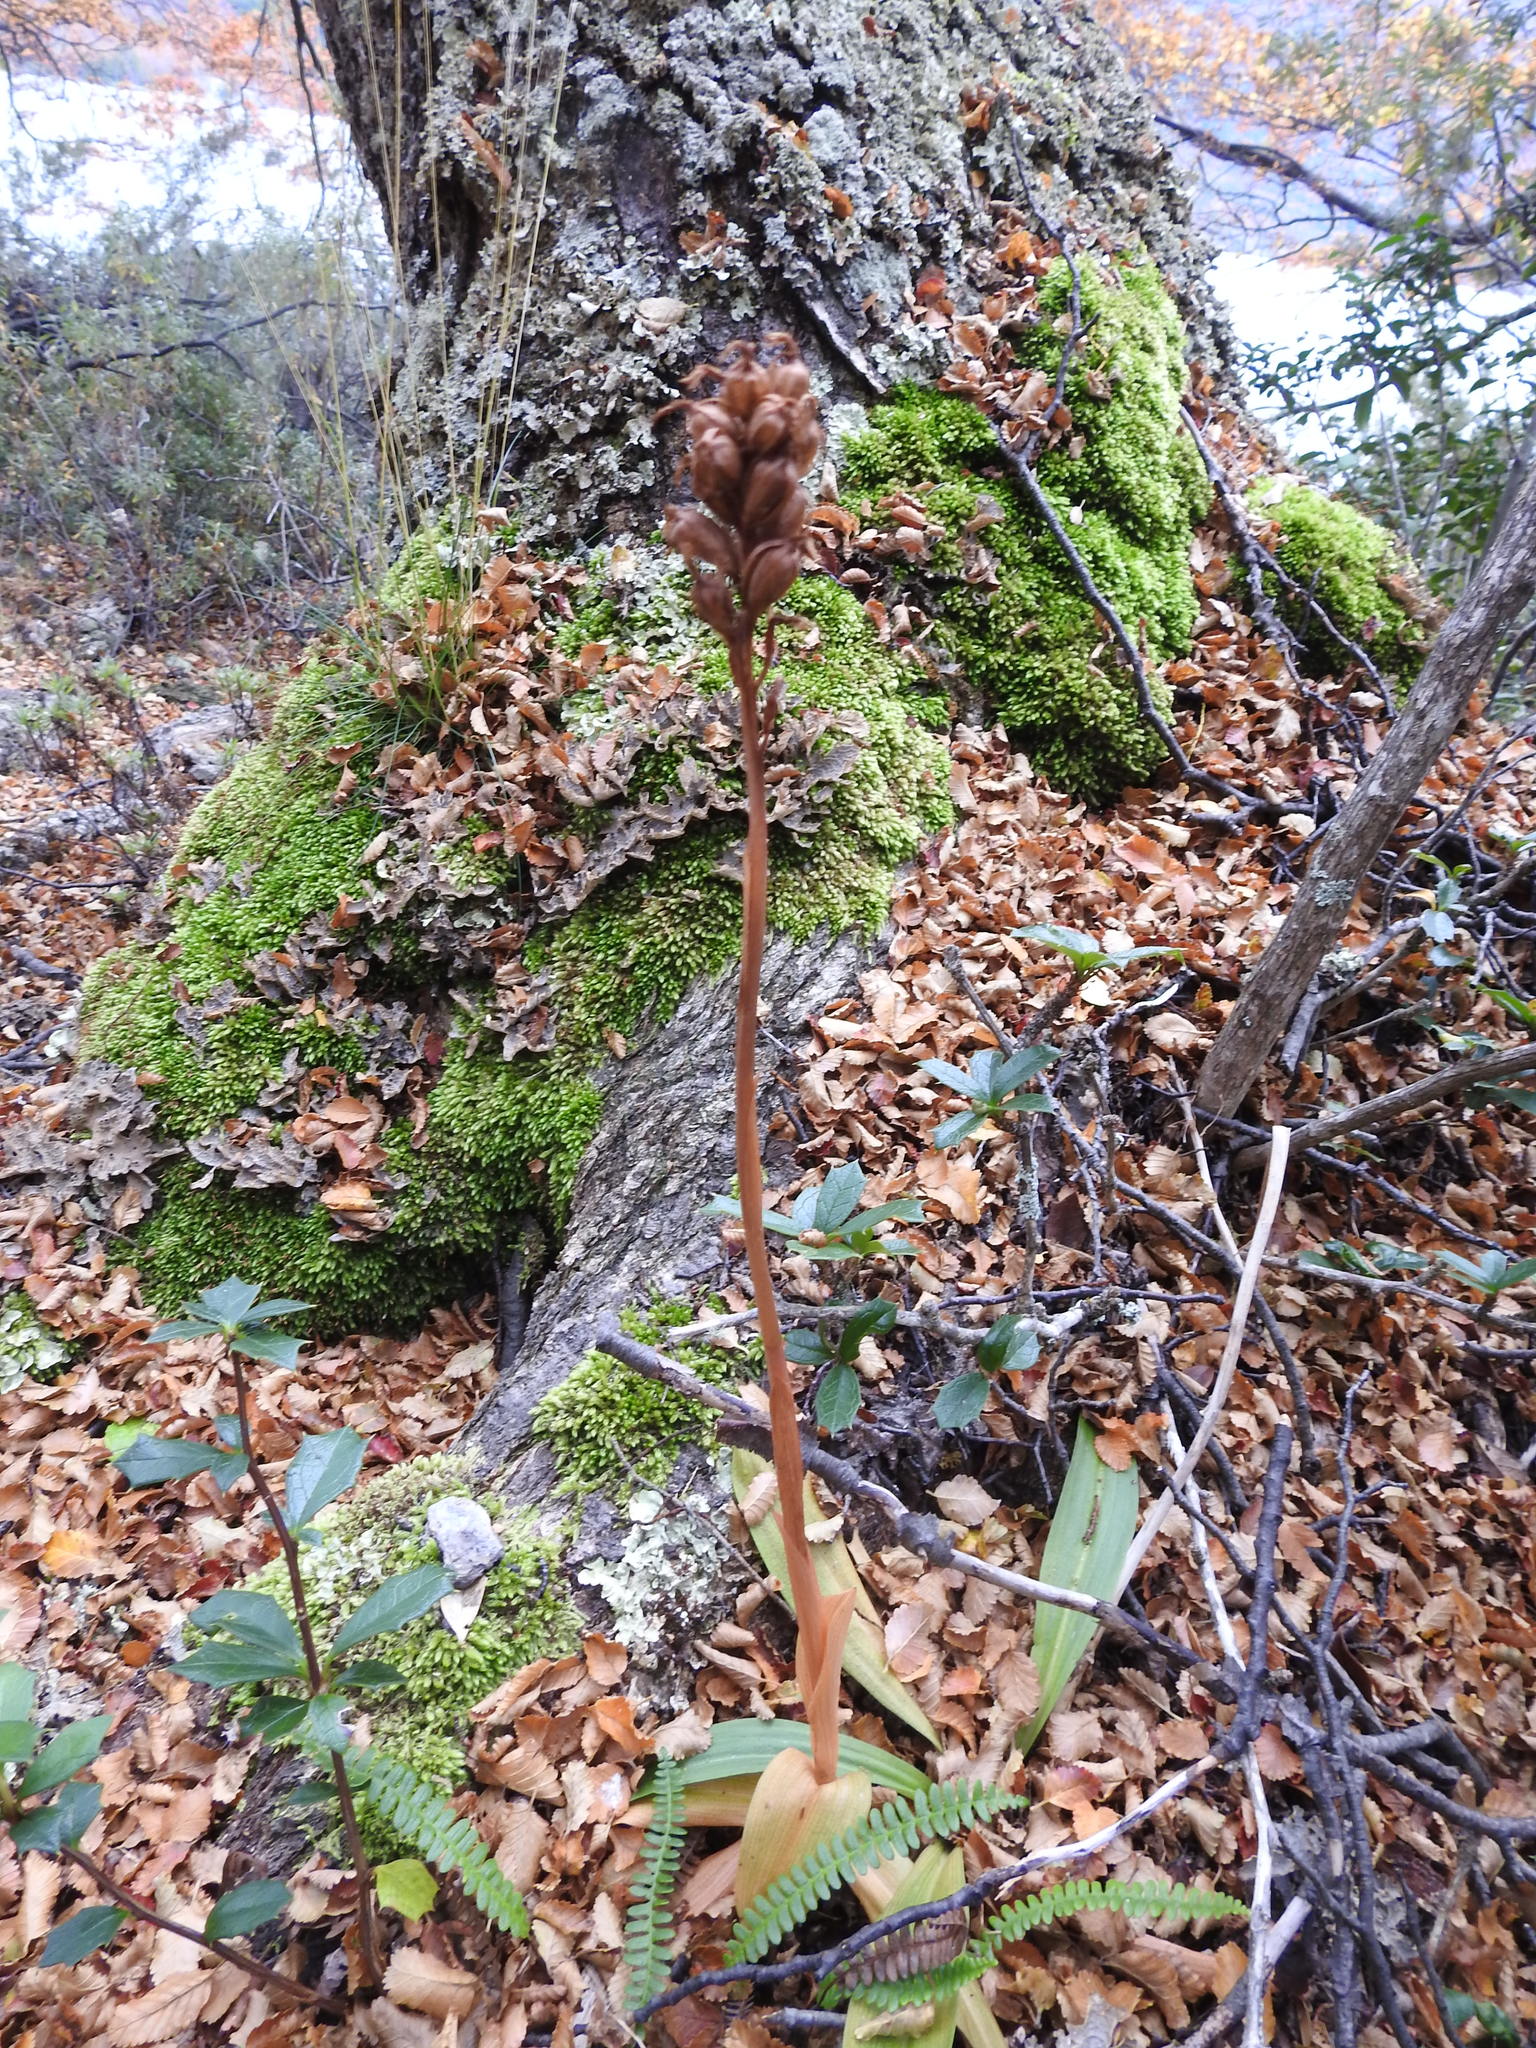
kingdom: Plantae
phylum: Tracheophyta
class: Liliopsida
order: Asparagales
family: Orchidaceae
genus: Gavilea
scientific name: Gavilea lutea
